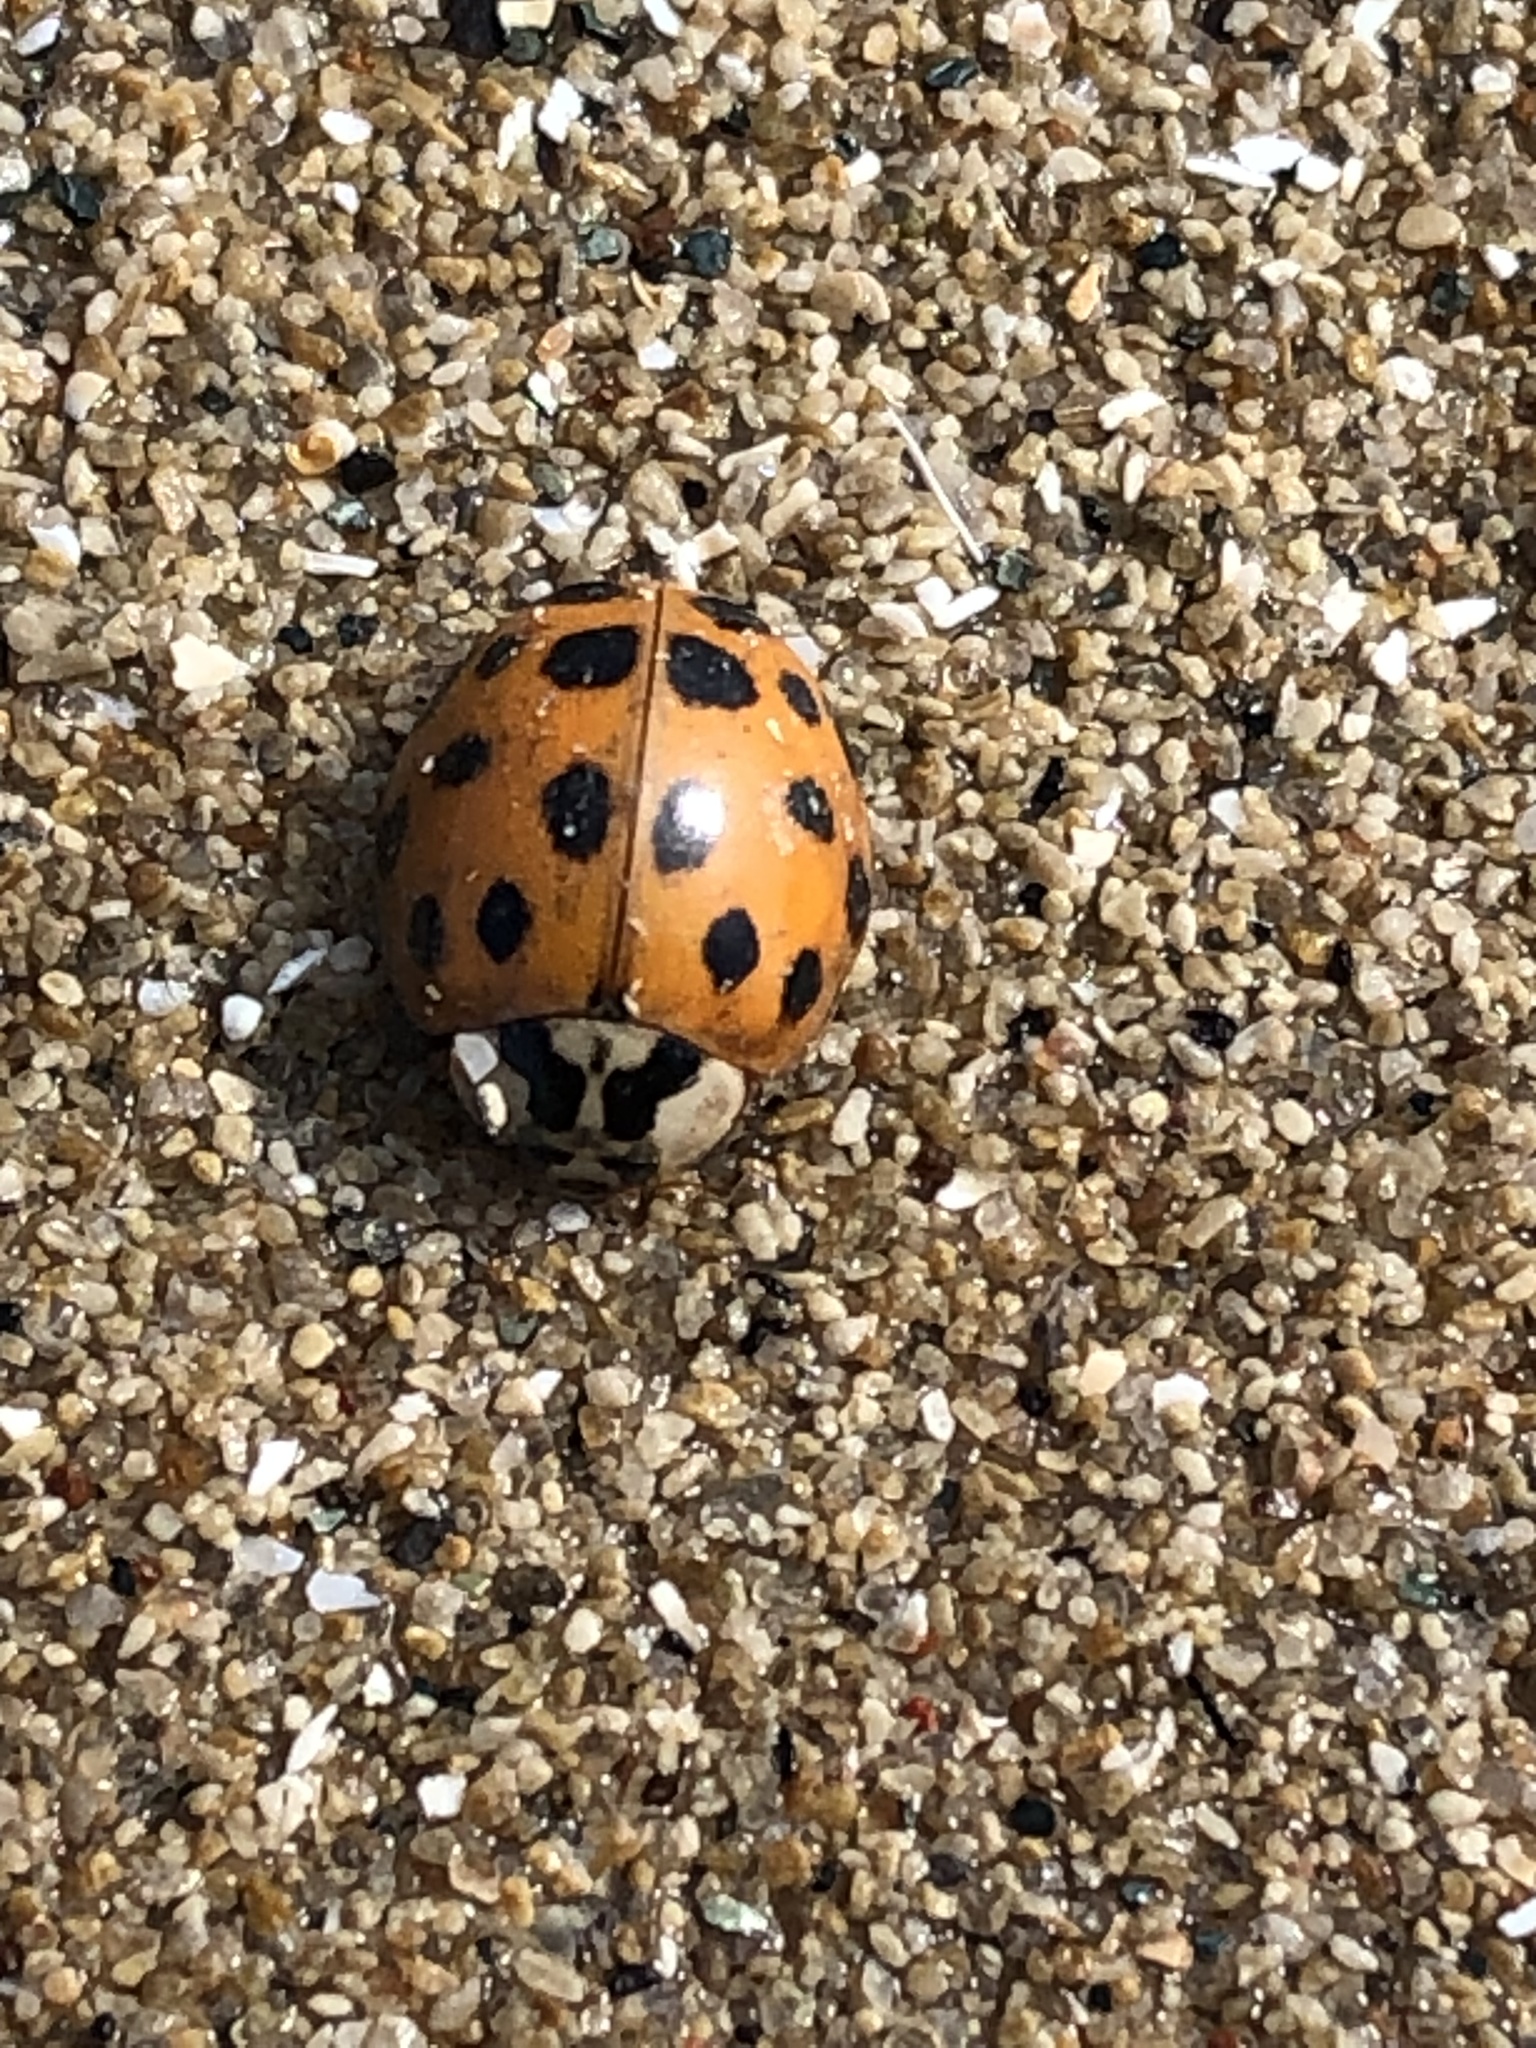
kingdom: Animalia
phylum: Arthropoda
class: Insecta
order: Coleoptera
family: Coccinellidae
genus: Harmonia
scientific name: Harmonia axyridis
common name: Harlequin ladybird
